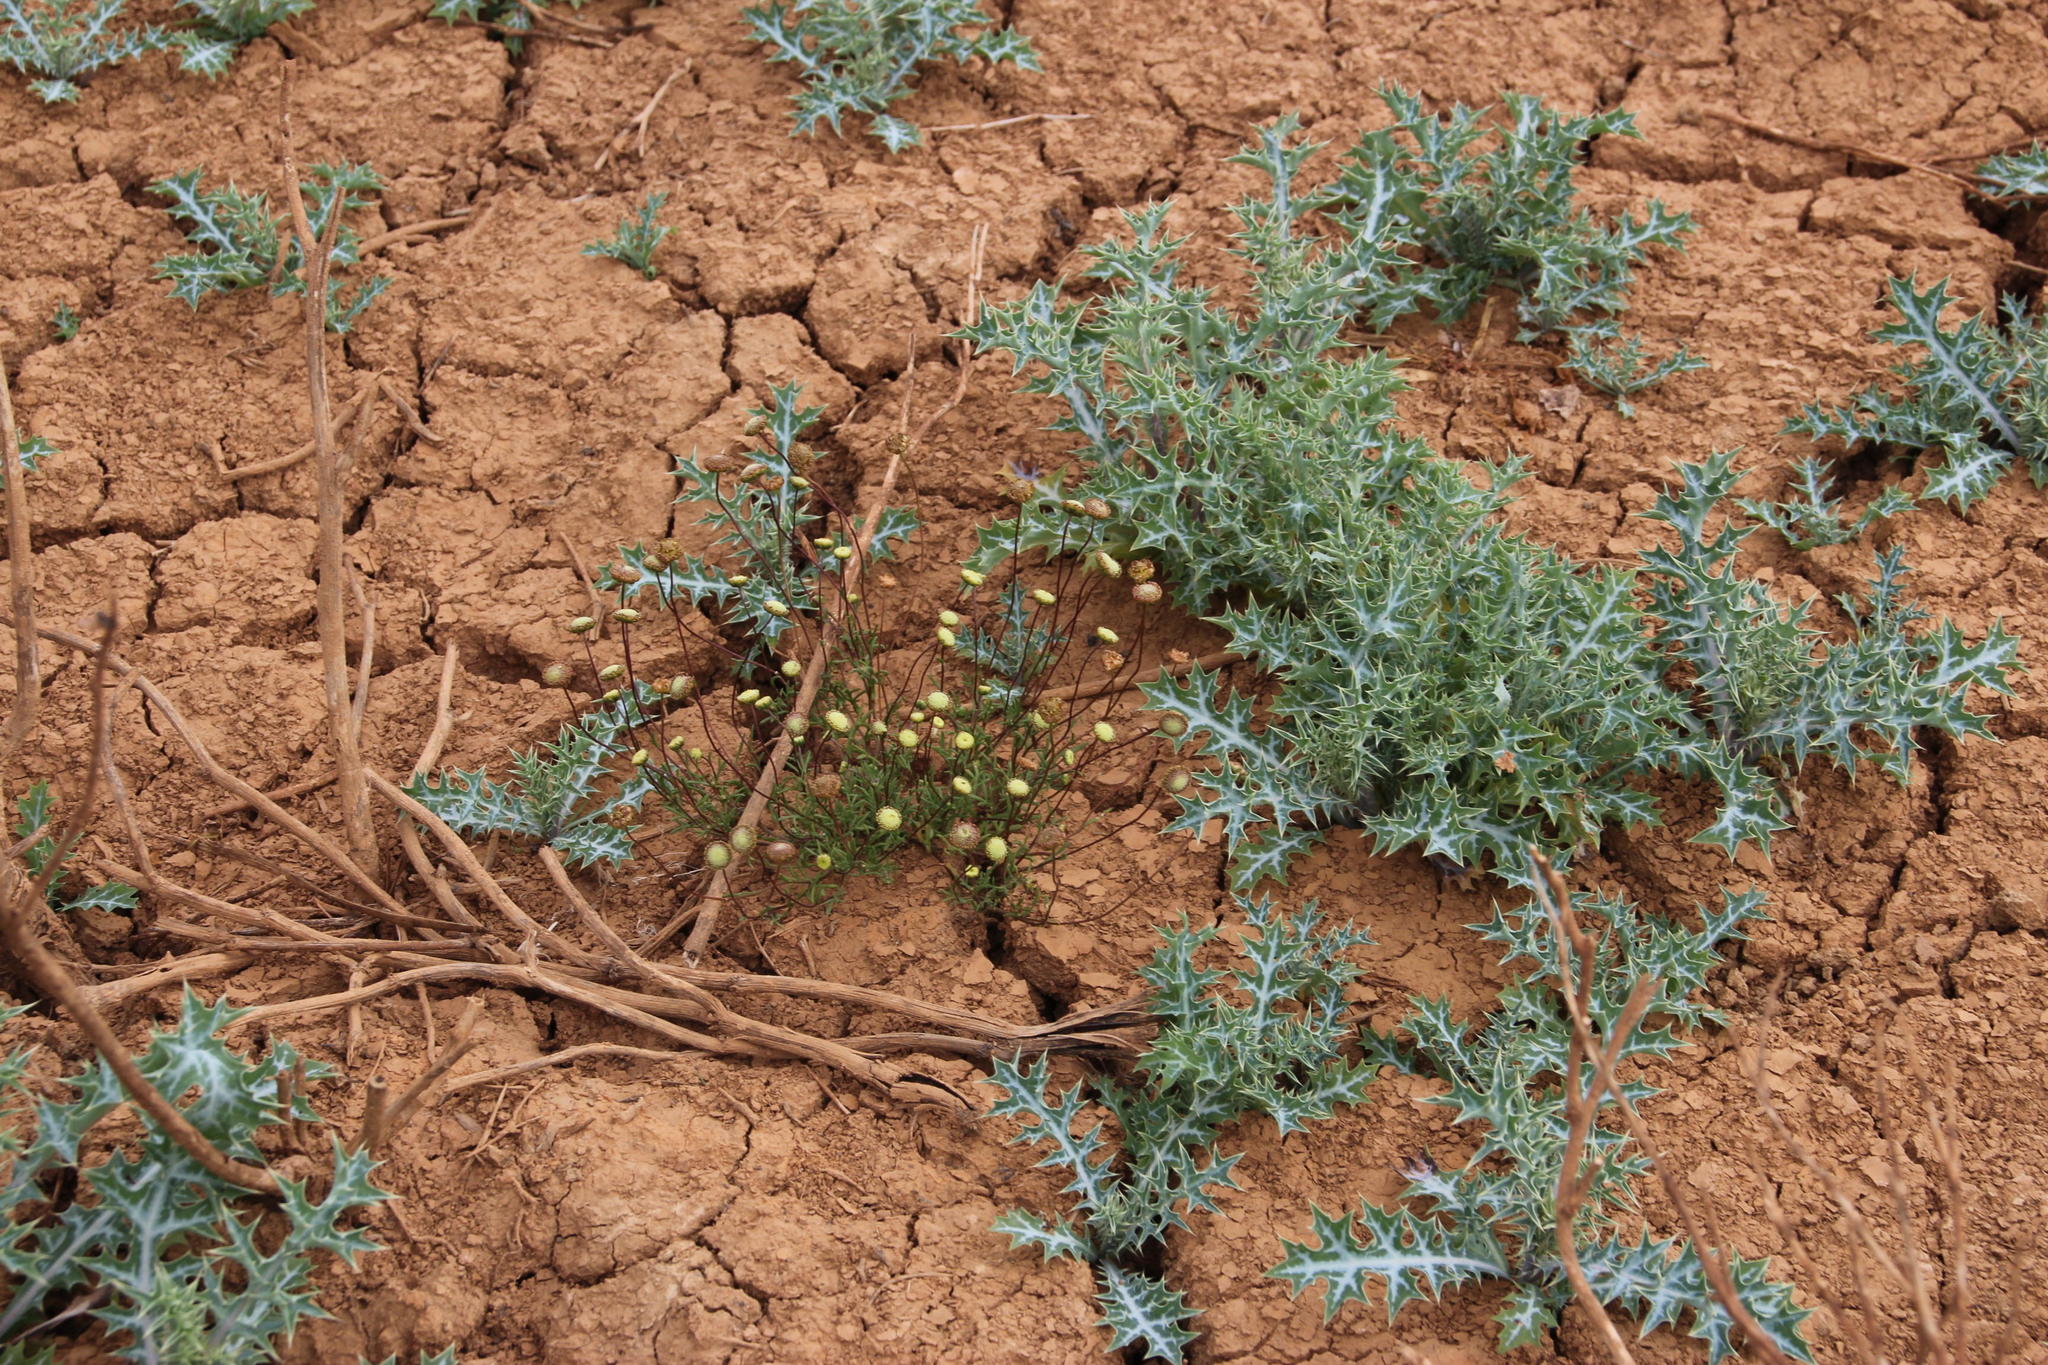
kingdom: Plantae
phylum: Tracheophyta
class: Magnoliopsida
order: Asterales
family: Asteraceae
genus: Cotula
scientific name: Cotula laxa
